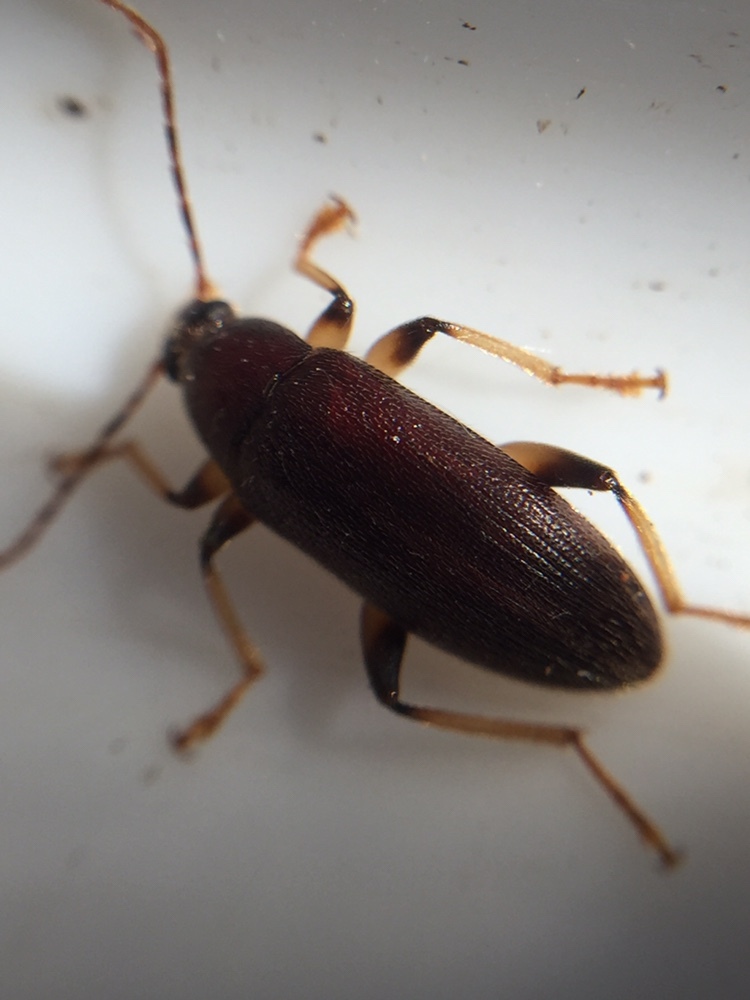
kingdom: Animalia
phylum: Arthropoda
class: Insecta
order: Coleoptera
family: Tenebrionidae
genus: Homotrysis
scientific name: Homotrysis
